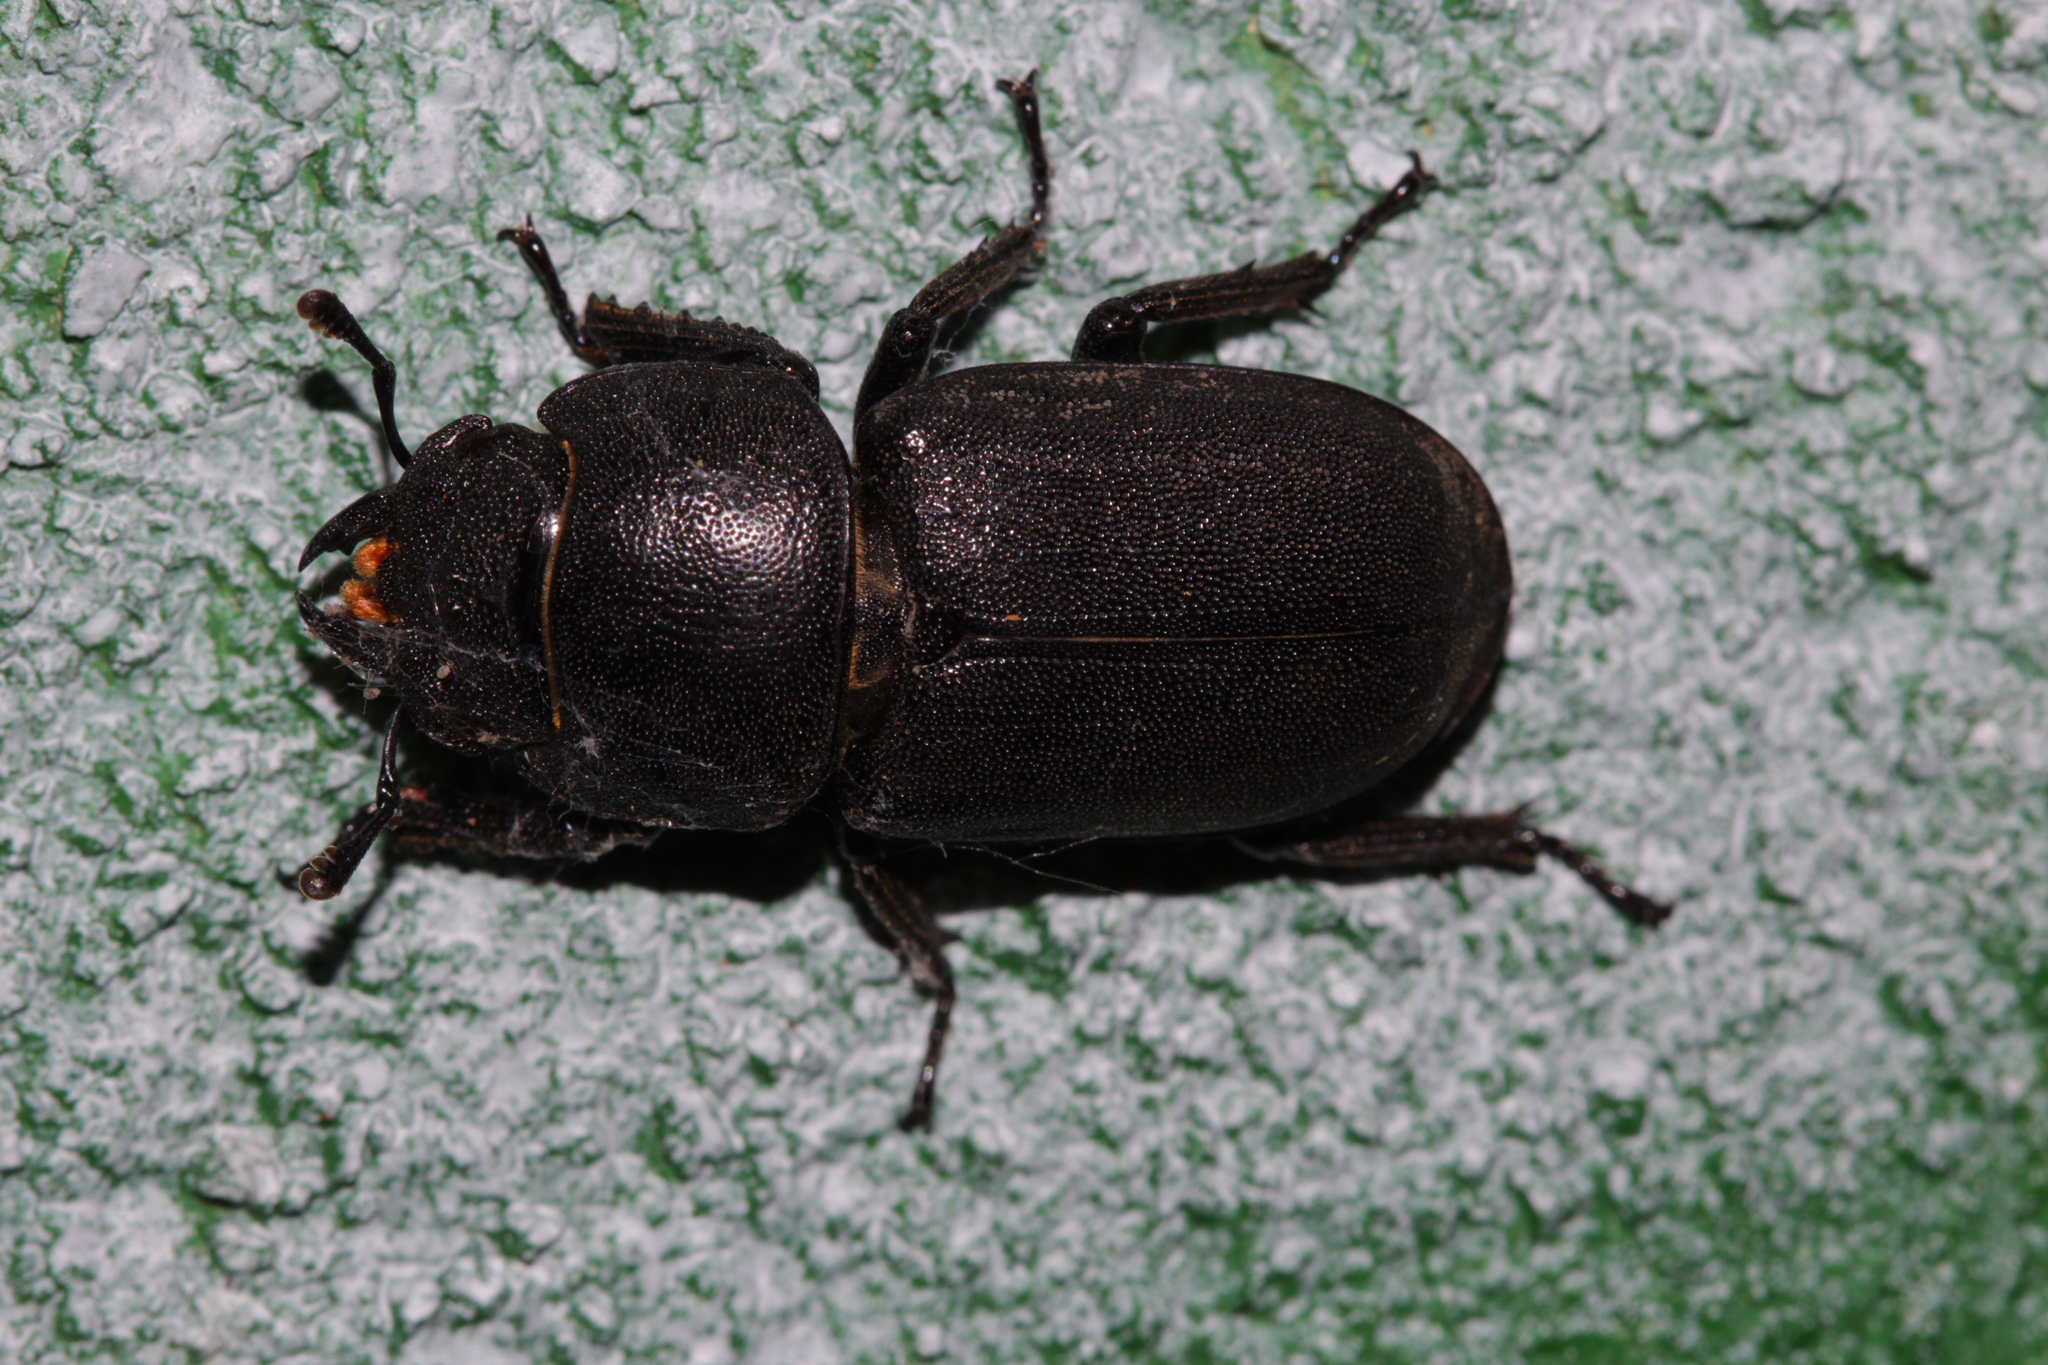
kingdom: Animalia
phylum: Arthropoda
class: Insecta
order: Coleoptera
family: Lucanidae
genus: Dorcus
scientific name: Dorcus parallelipipedus
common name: Lesser stag beetle
